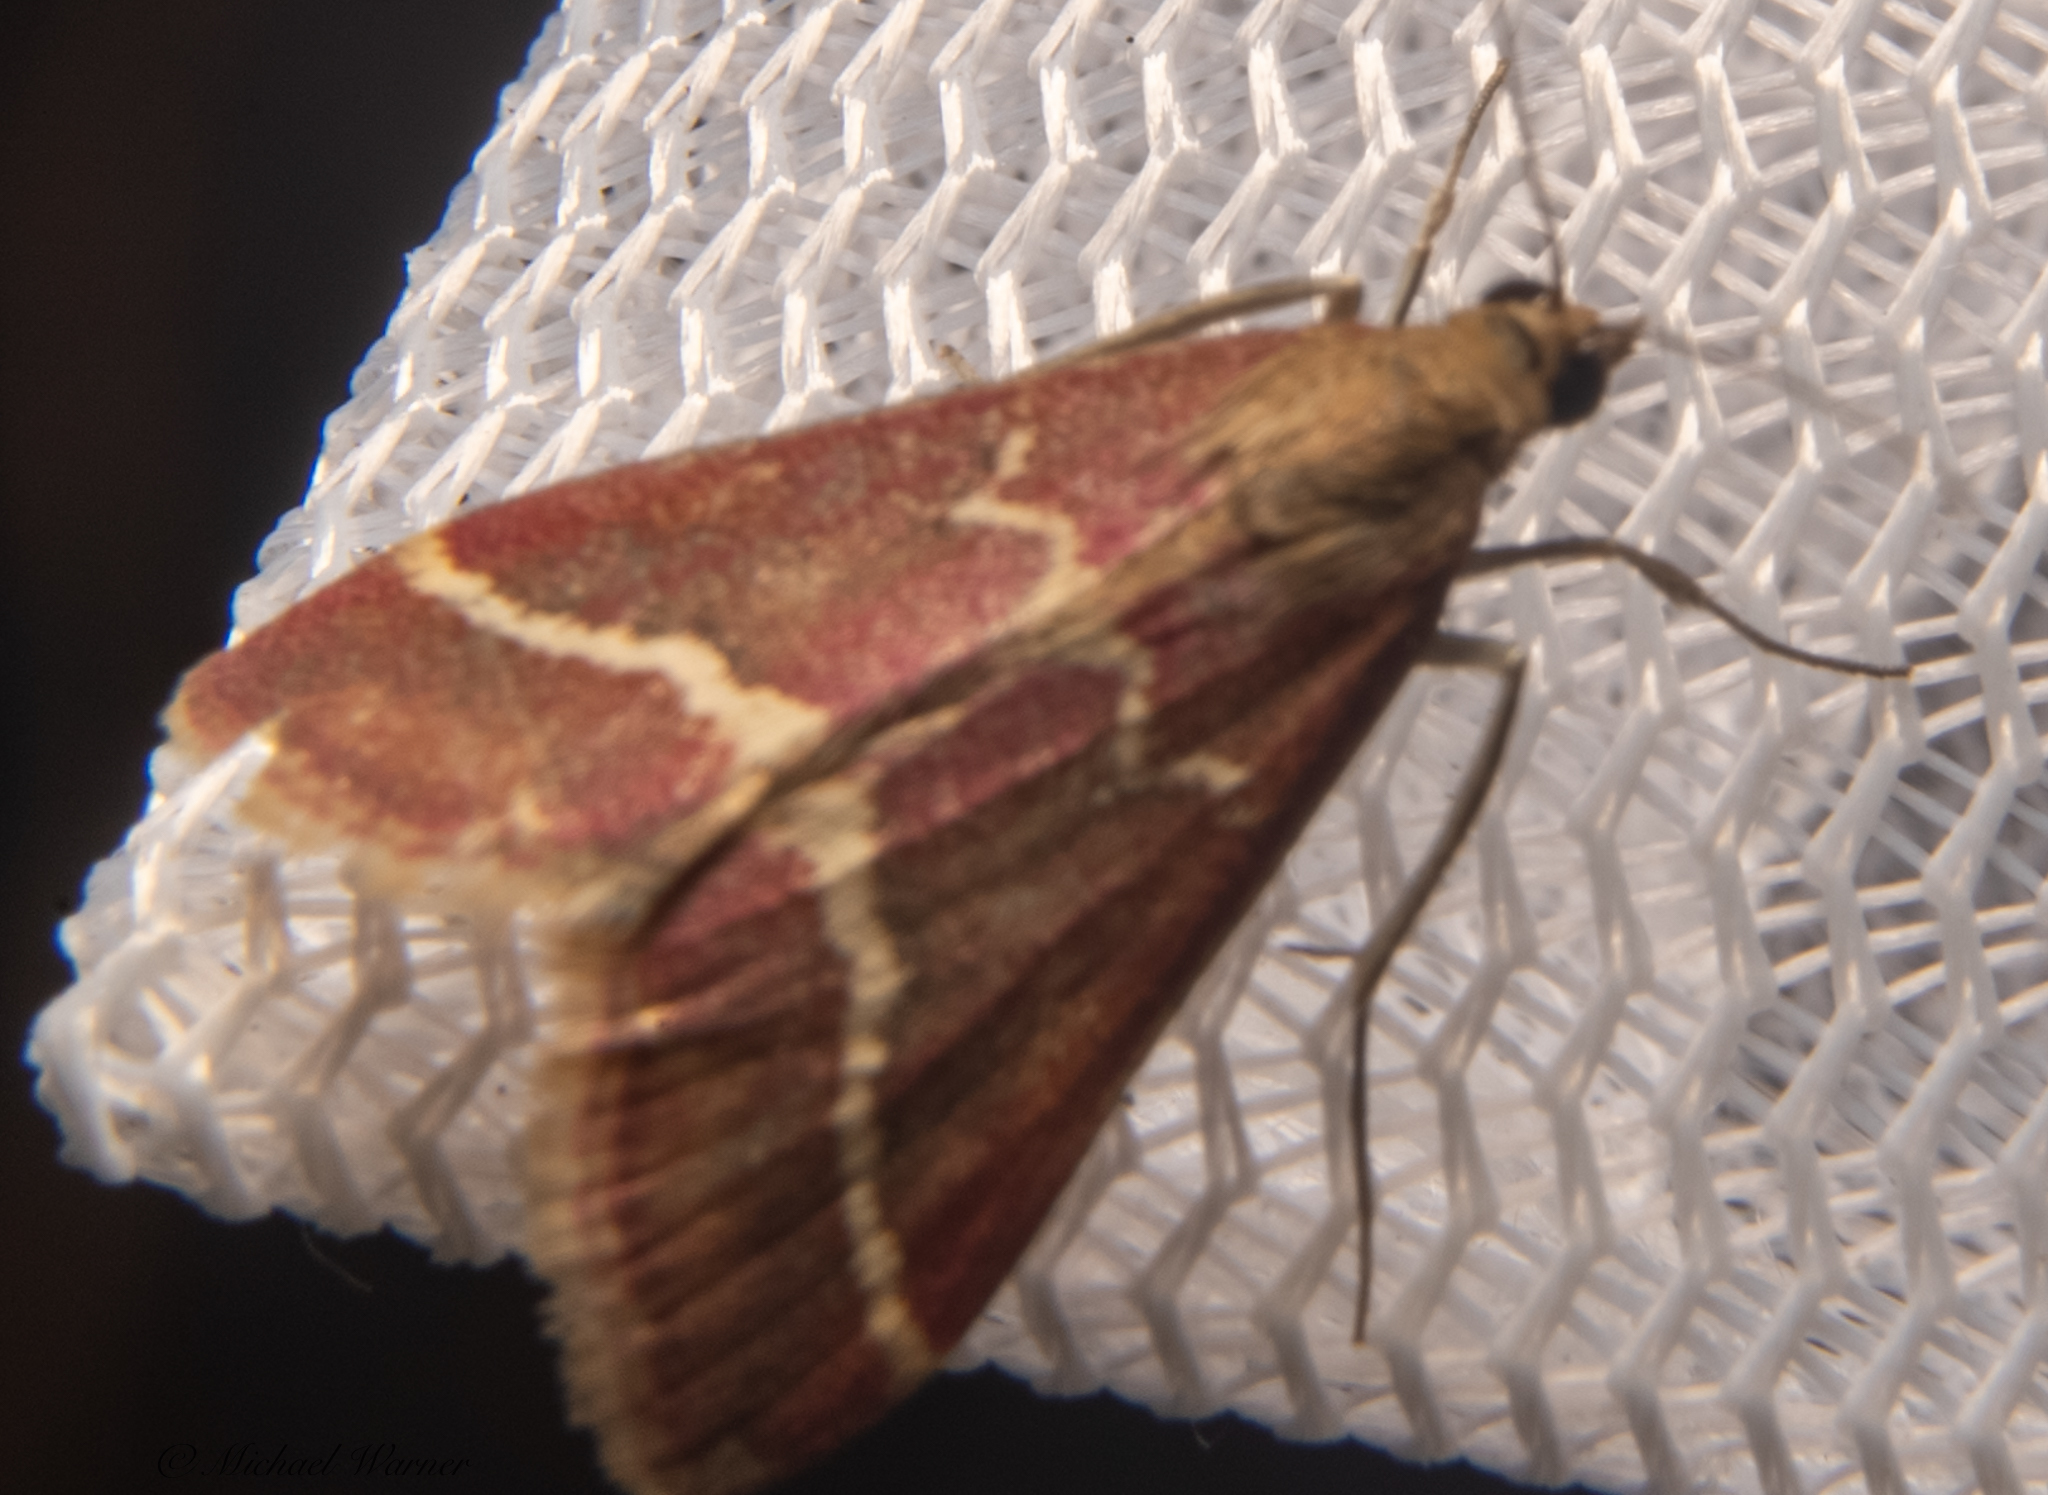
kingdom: Animalia
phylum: Arthropoda
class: Insecta
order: Lepidoptera
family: Crambidae
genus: Pyrausta
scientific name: Pyrausta volupialis
